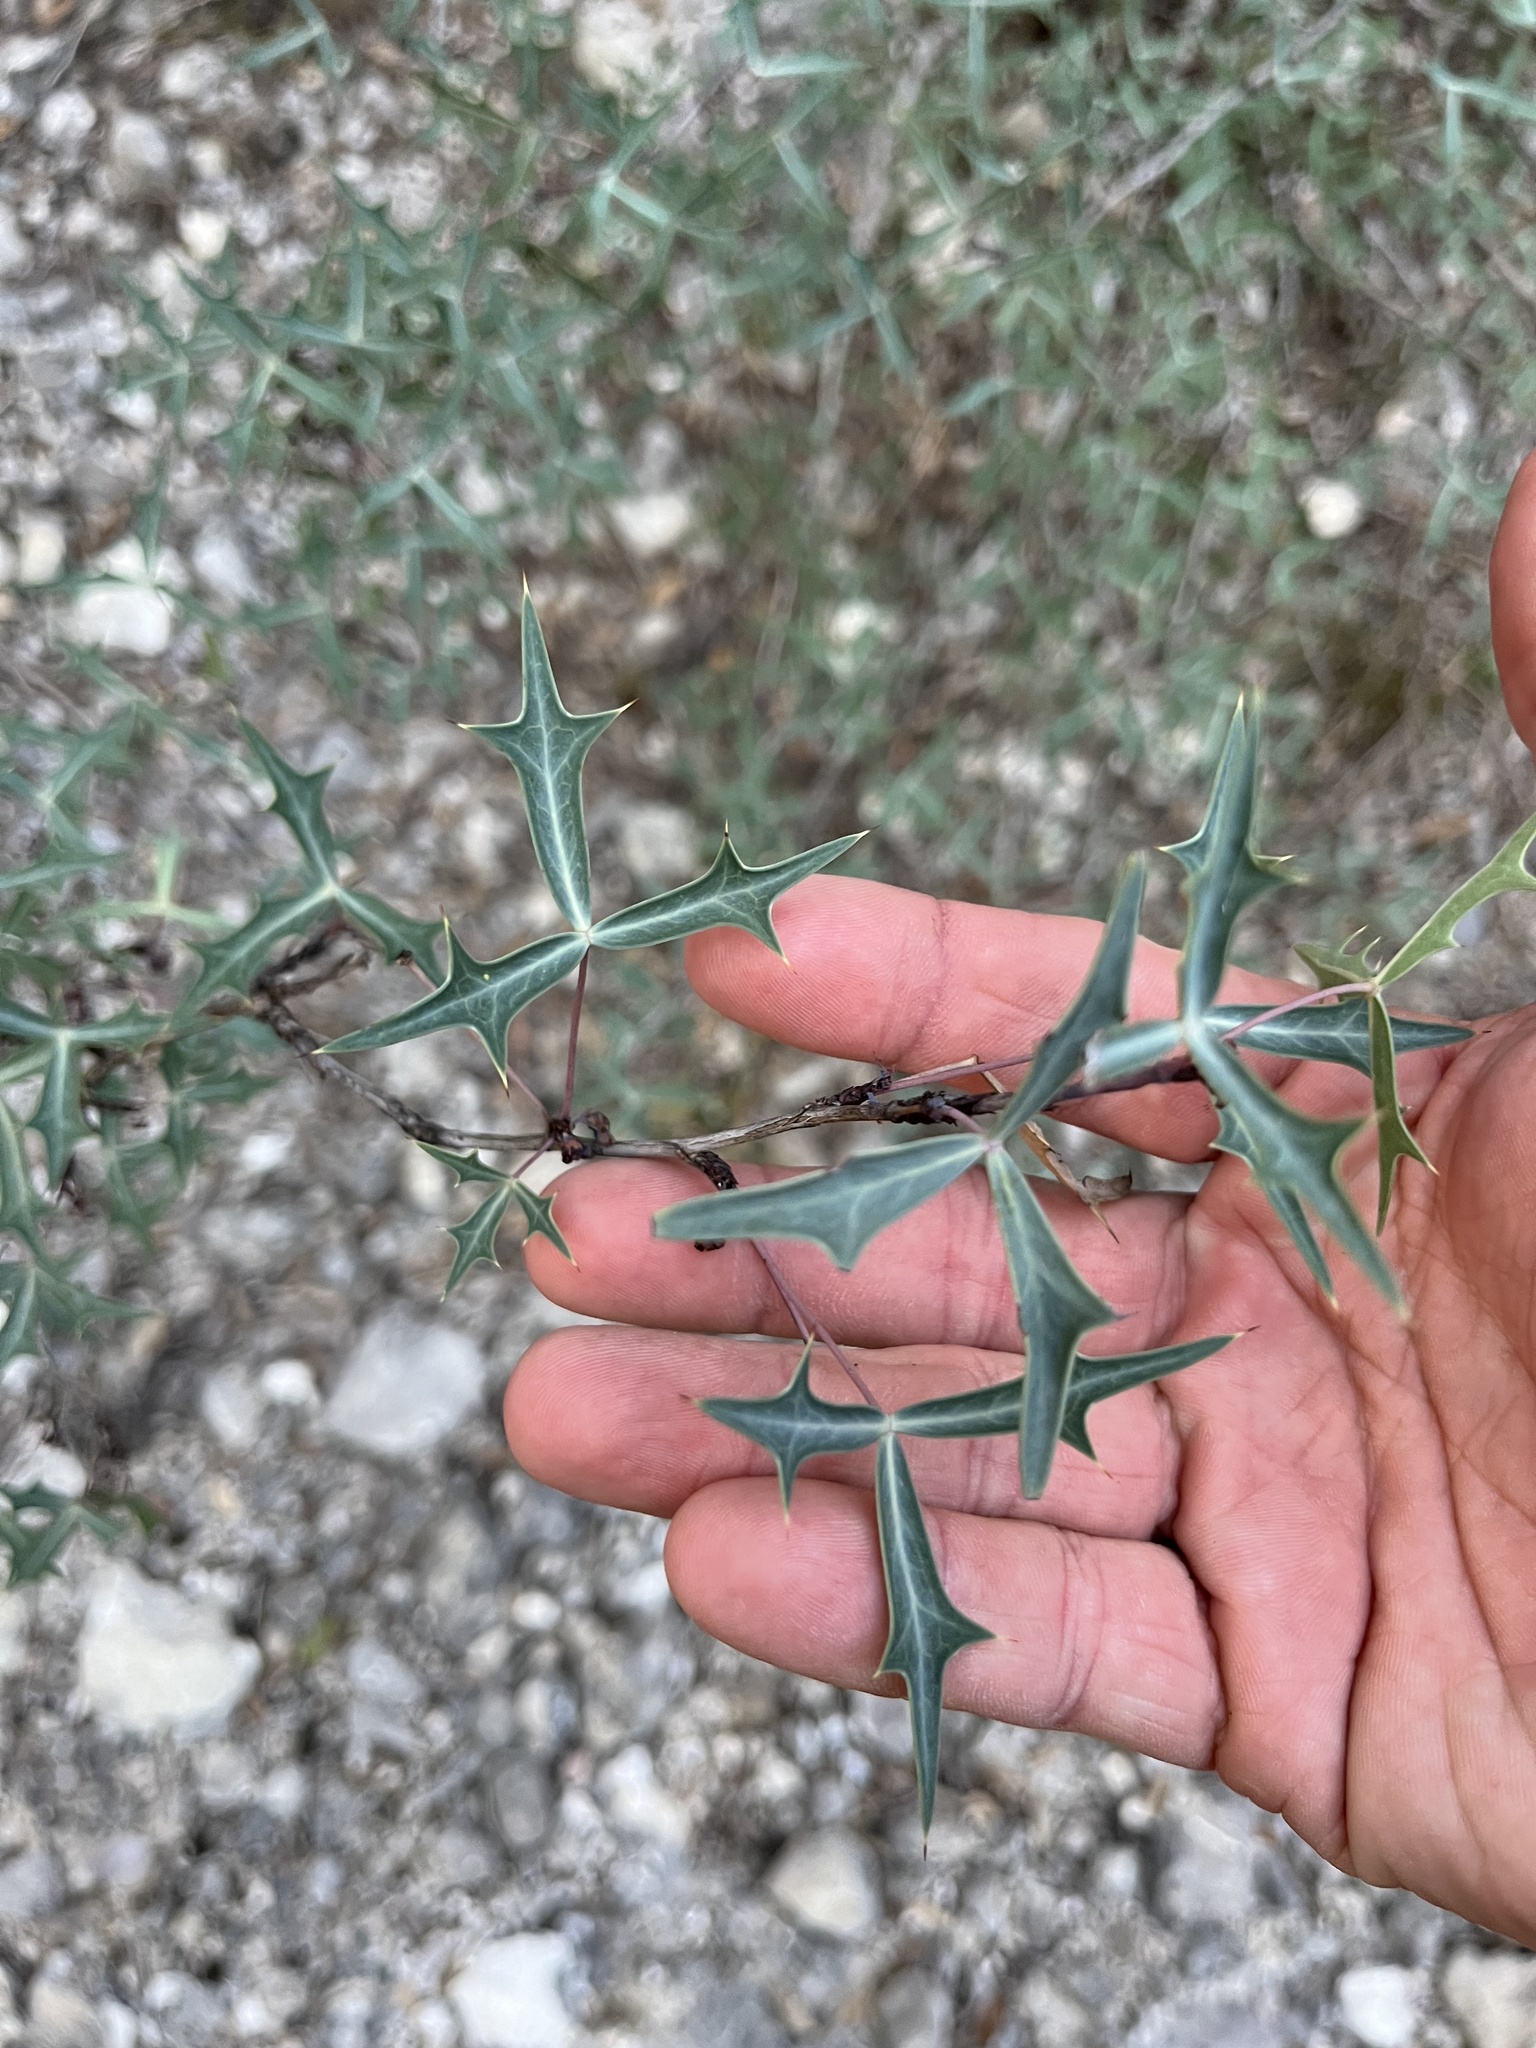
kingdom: Plantae
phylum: Tracheophyta
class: Magnoliopsida
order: Ranunculales
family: Berberidaceae
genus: Alloberberis
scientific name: Alloberberis trifoliolata
